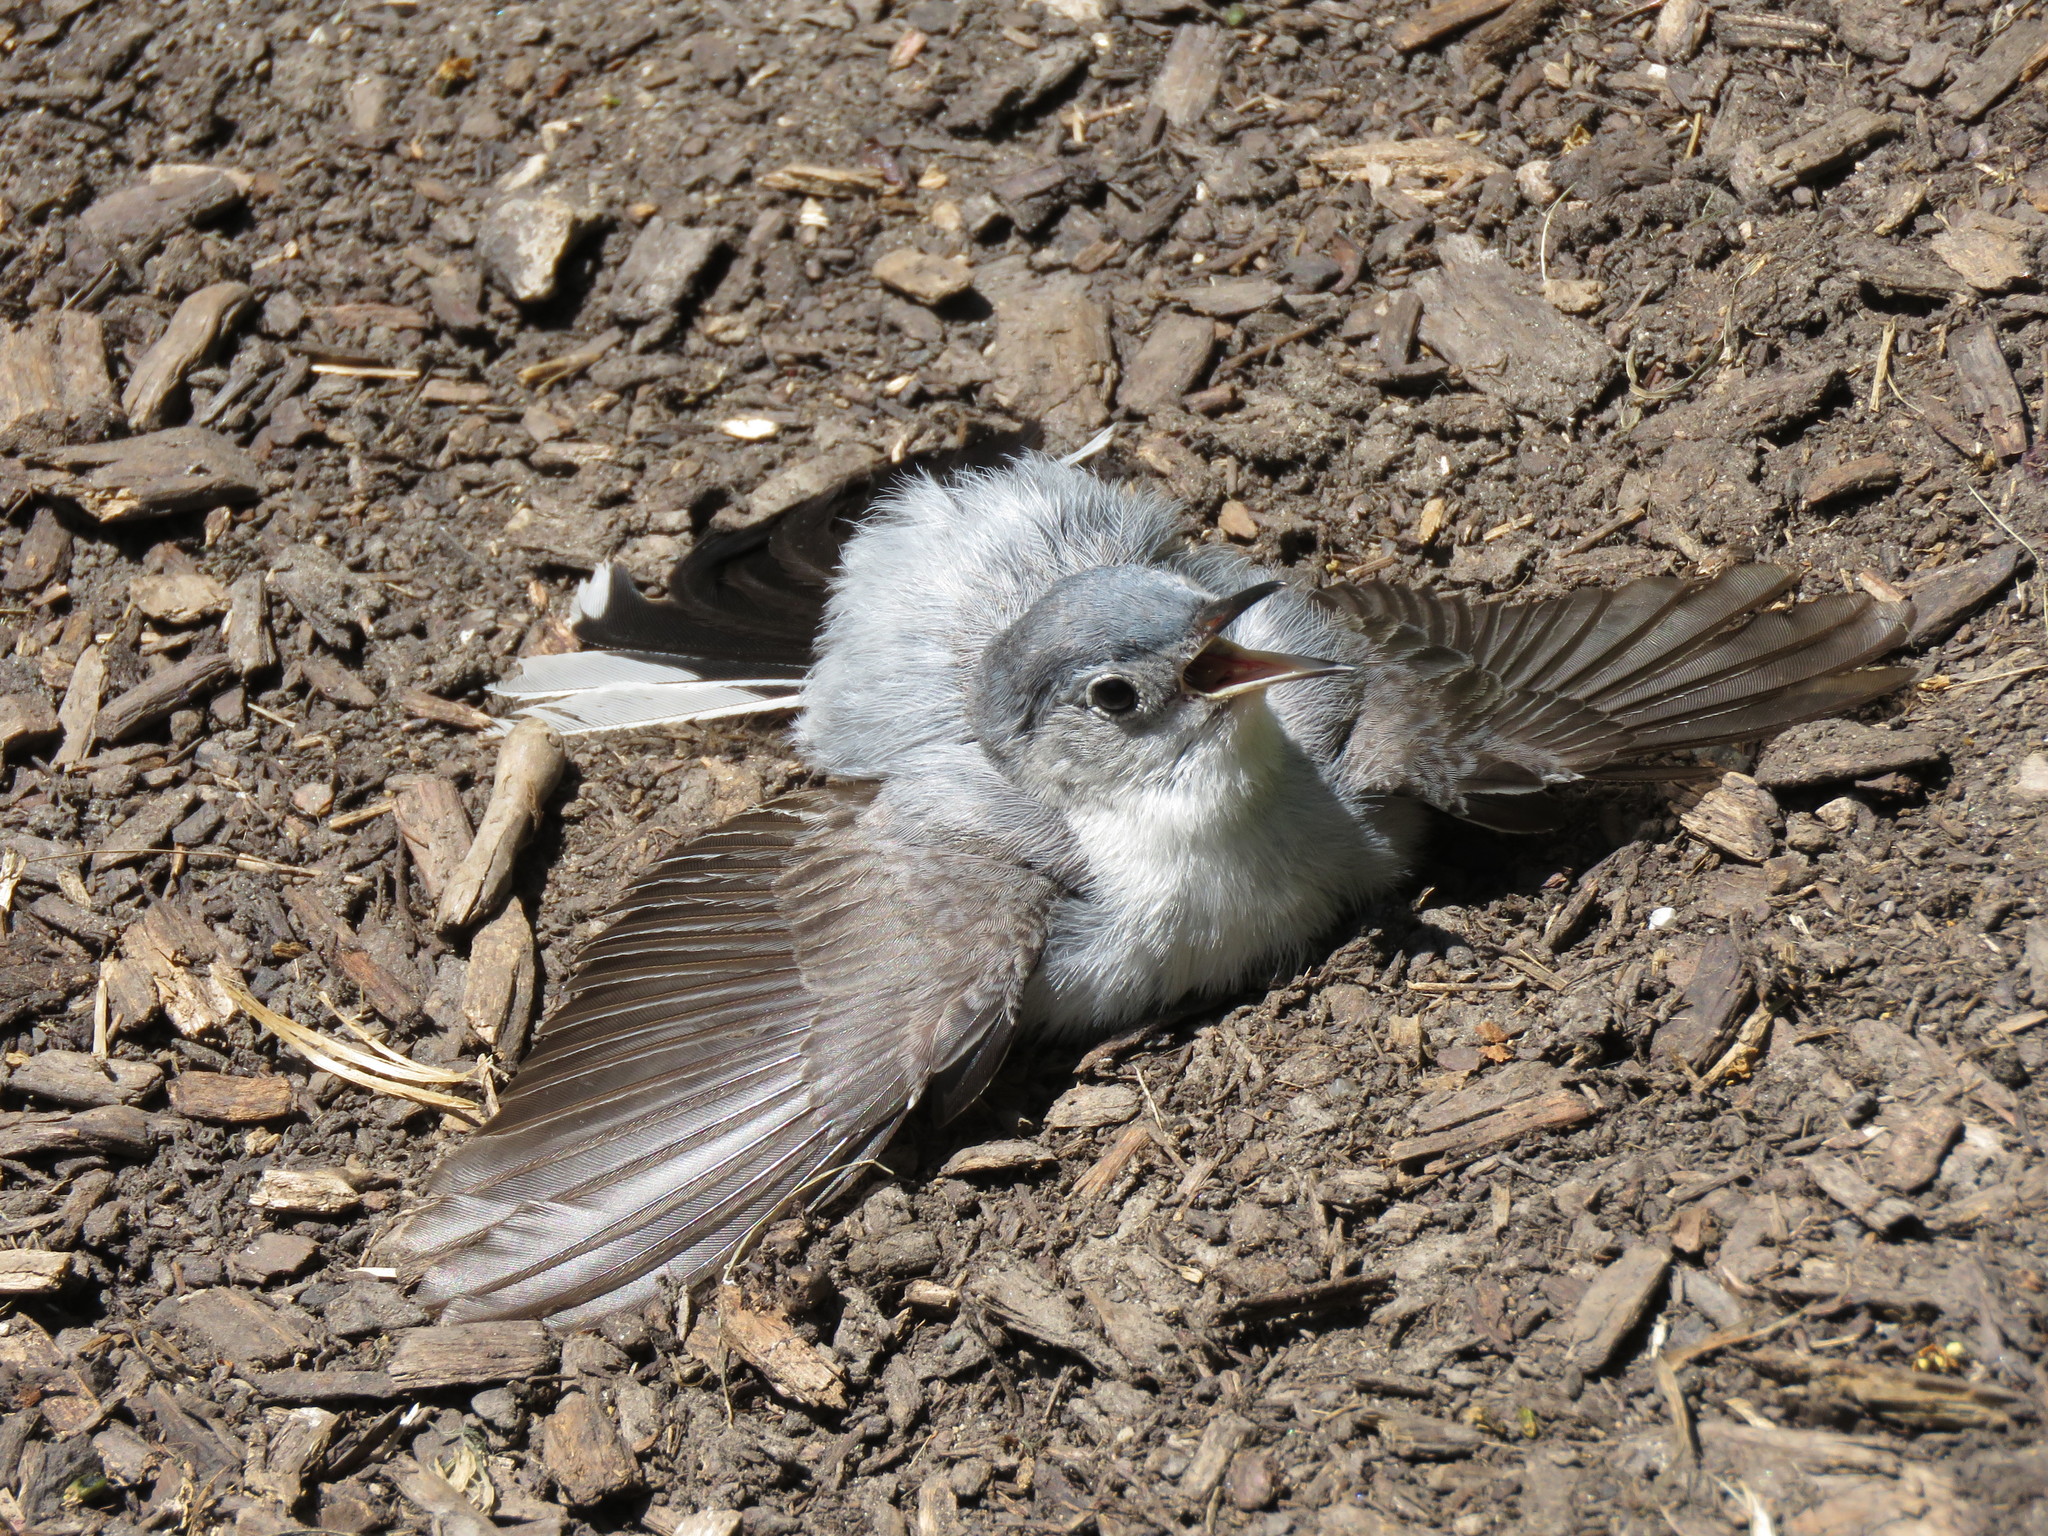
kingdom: Animalia
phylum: Chordata
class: Aves
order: Passeriformes
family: Polioptilidae
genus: Polioptila
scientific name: Polioptila caerulea
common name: Blue-gray gnatcatcher
